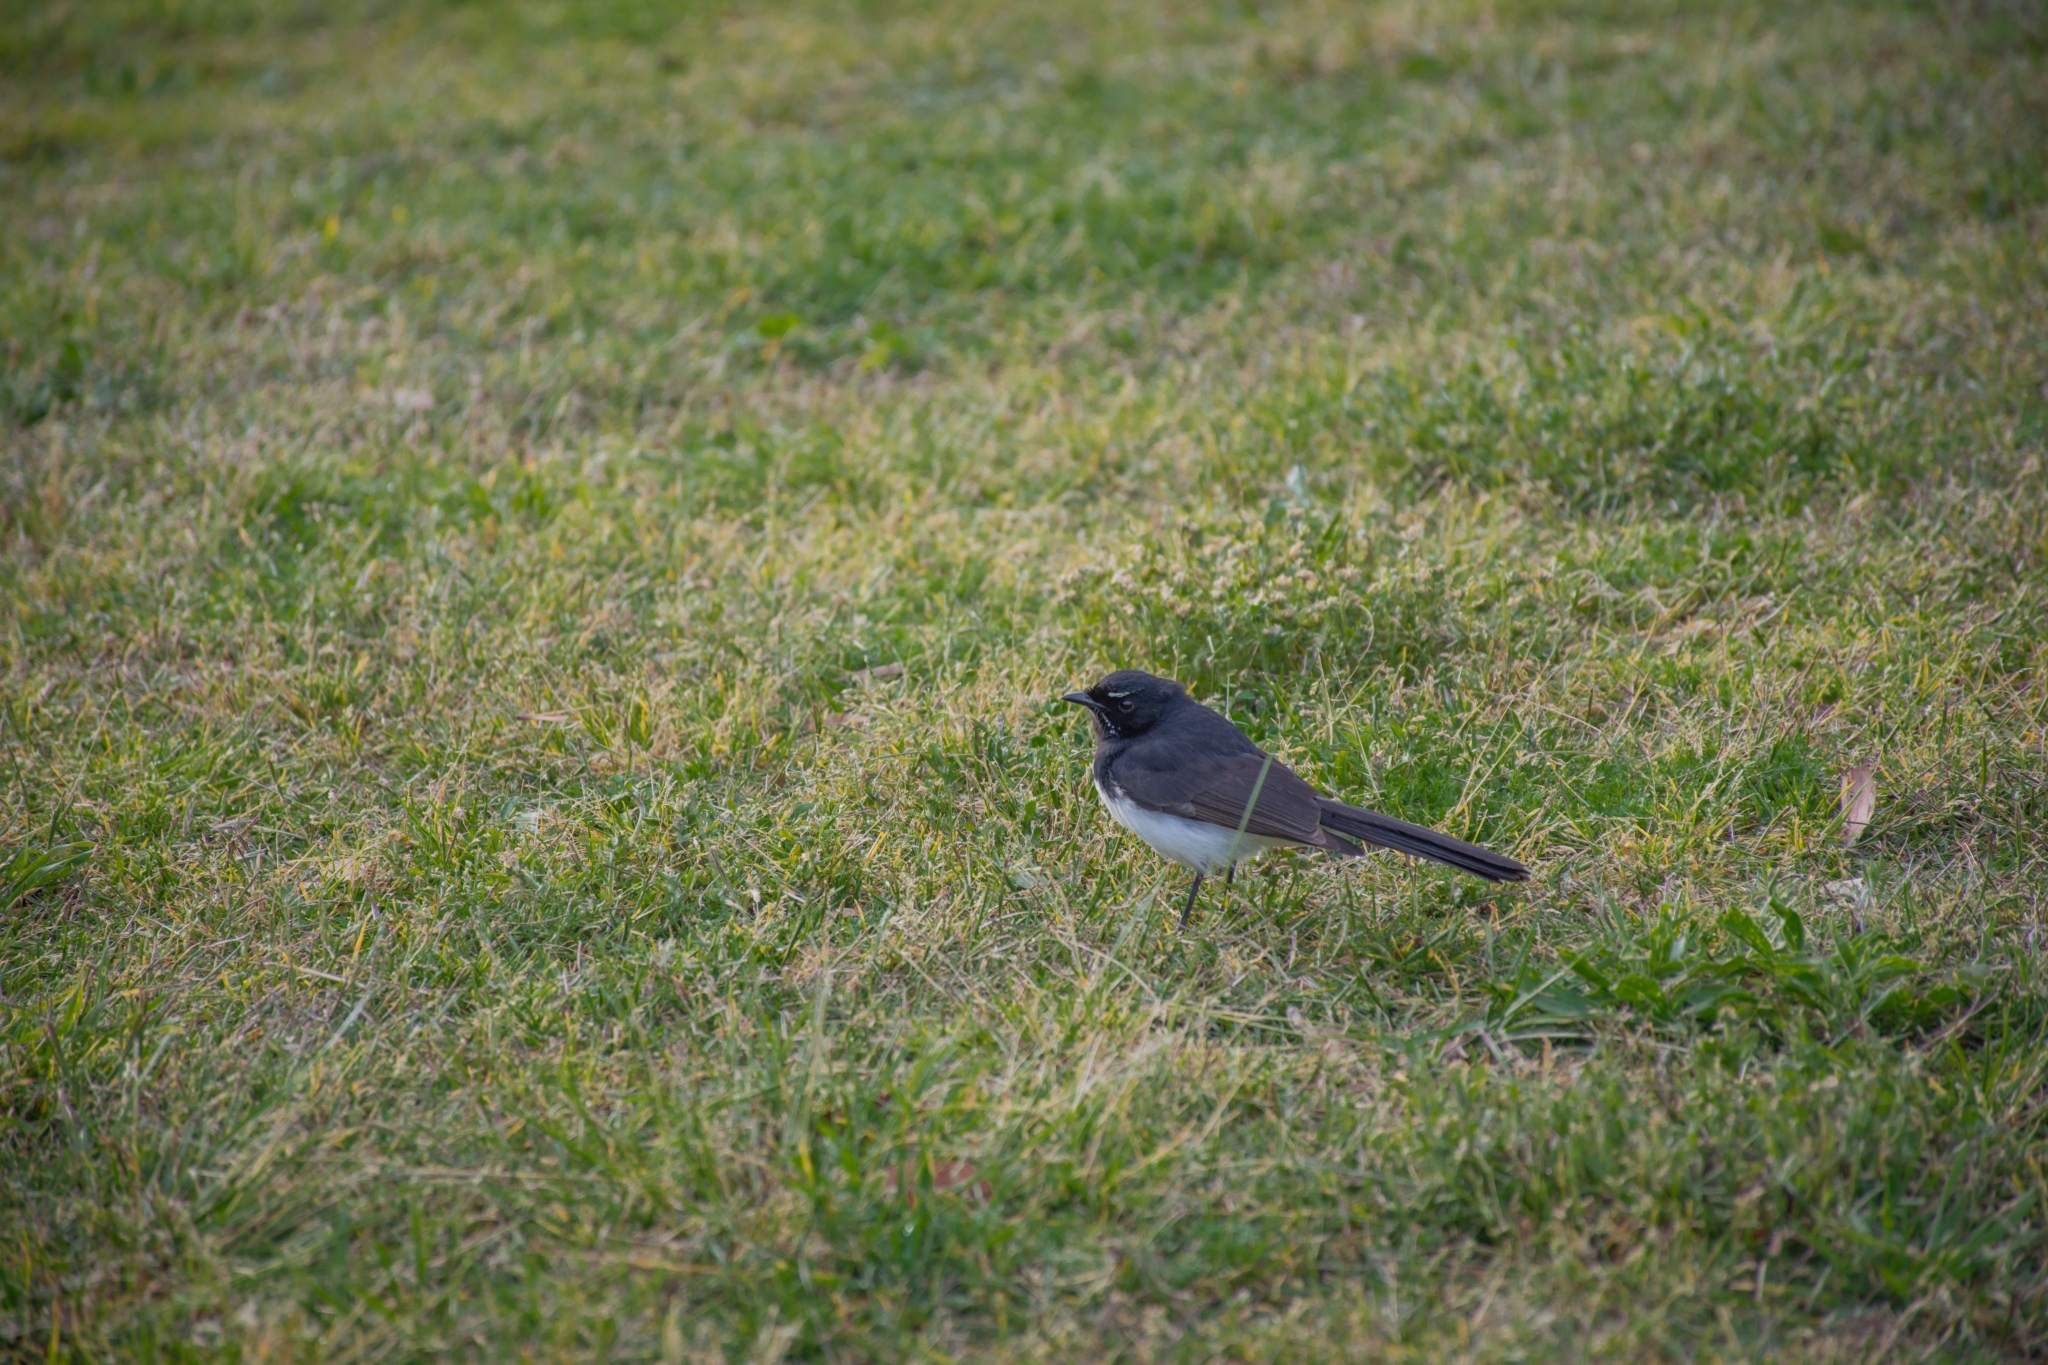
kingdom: Animalia
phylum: Chordata
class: Aves
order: Passeriformes
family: Rhipiduridae
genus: Rhipidura
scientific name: Rhipidura leucophrys
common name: Willie wagtail
